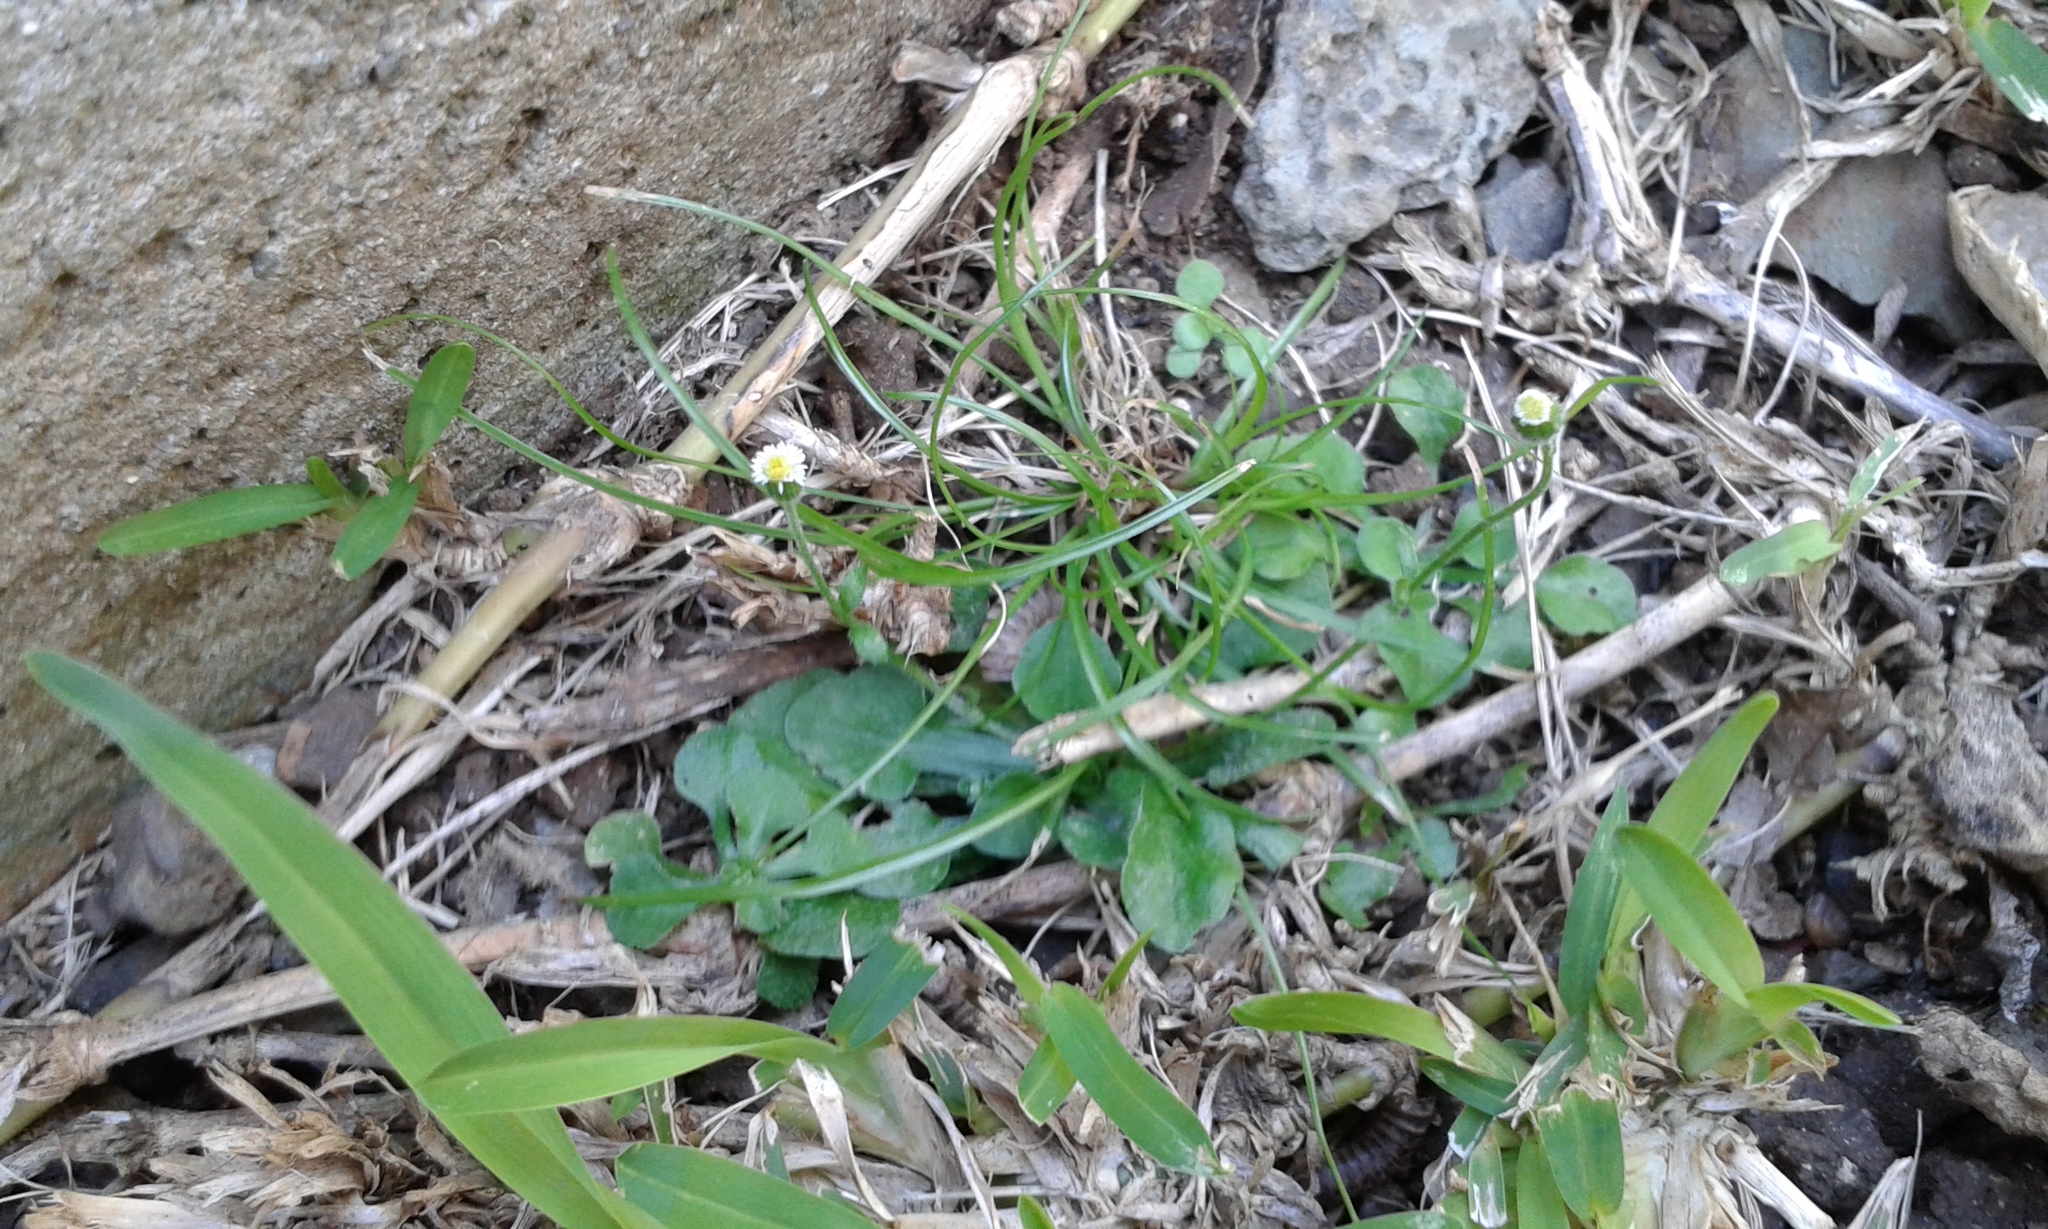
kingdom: Plantae
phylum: Tracheophyta
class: Magnoliopsida
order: Asterales
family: Asteraceae
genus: Erigeron
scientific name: Erigeron bellioides
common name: Bellorita
